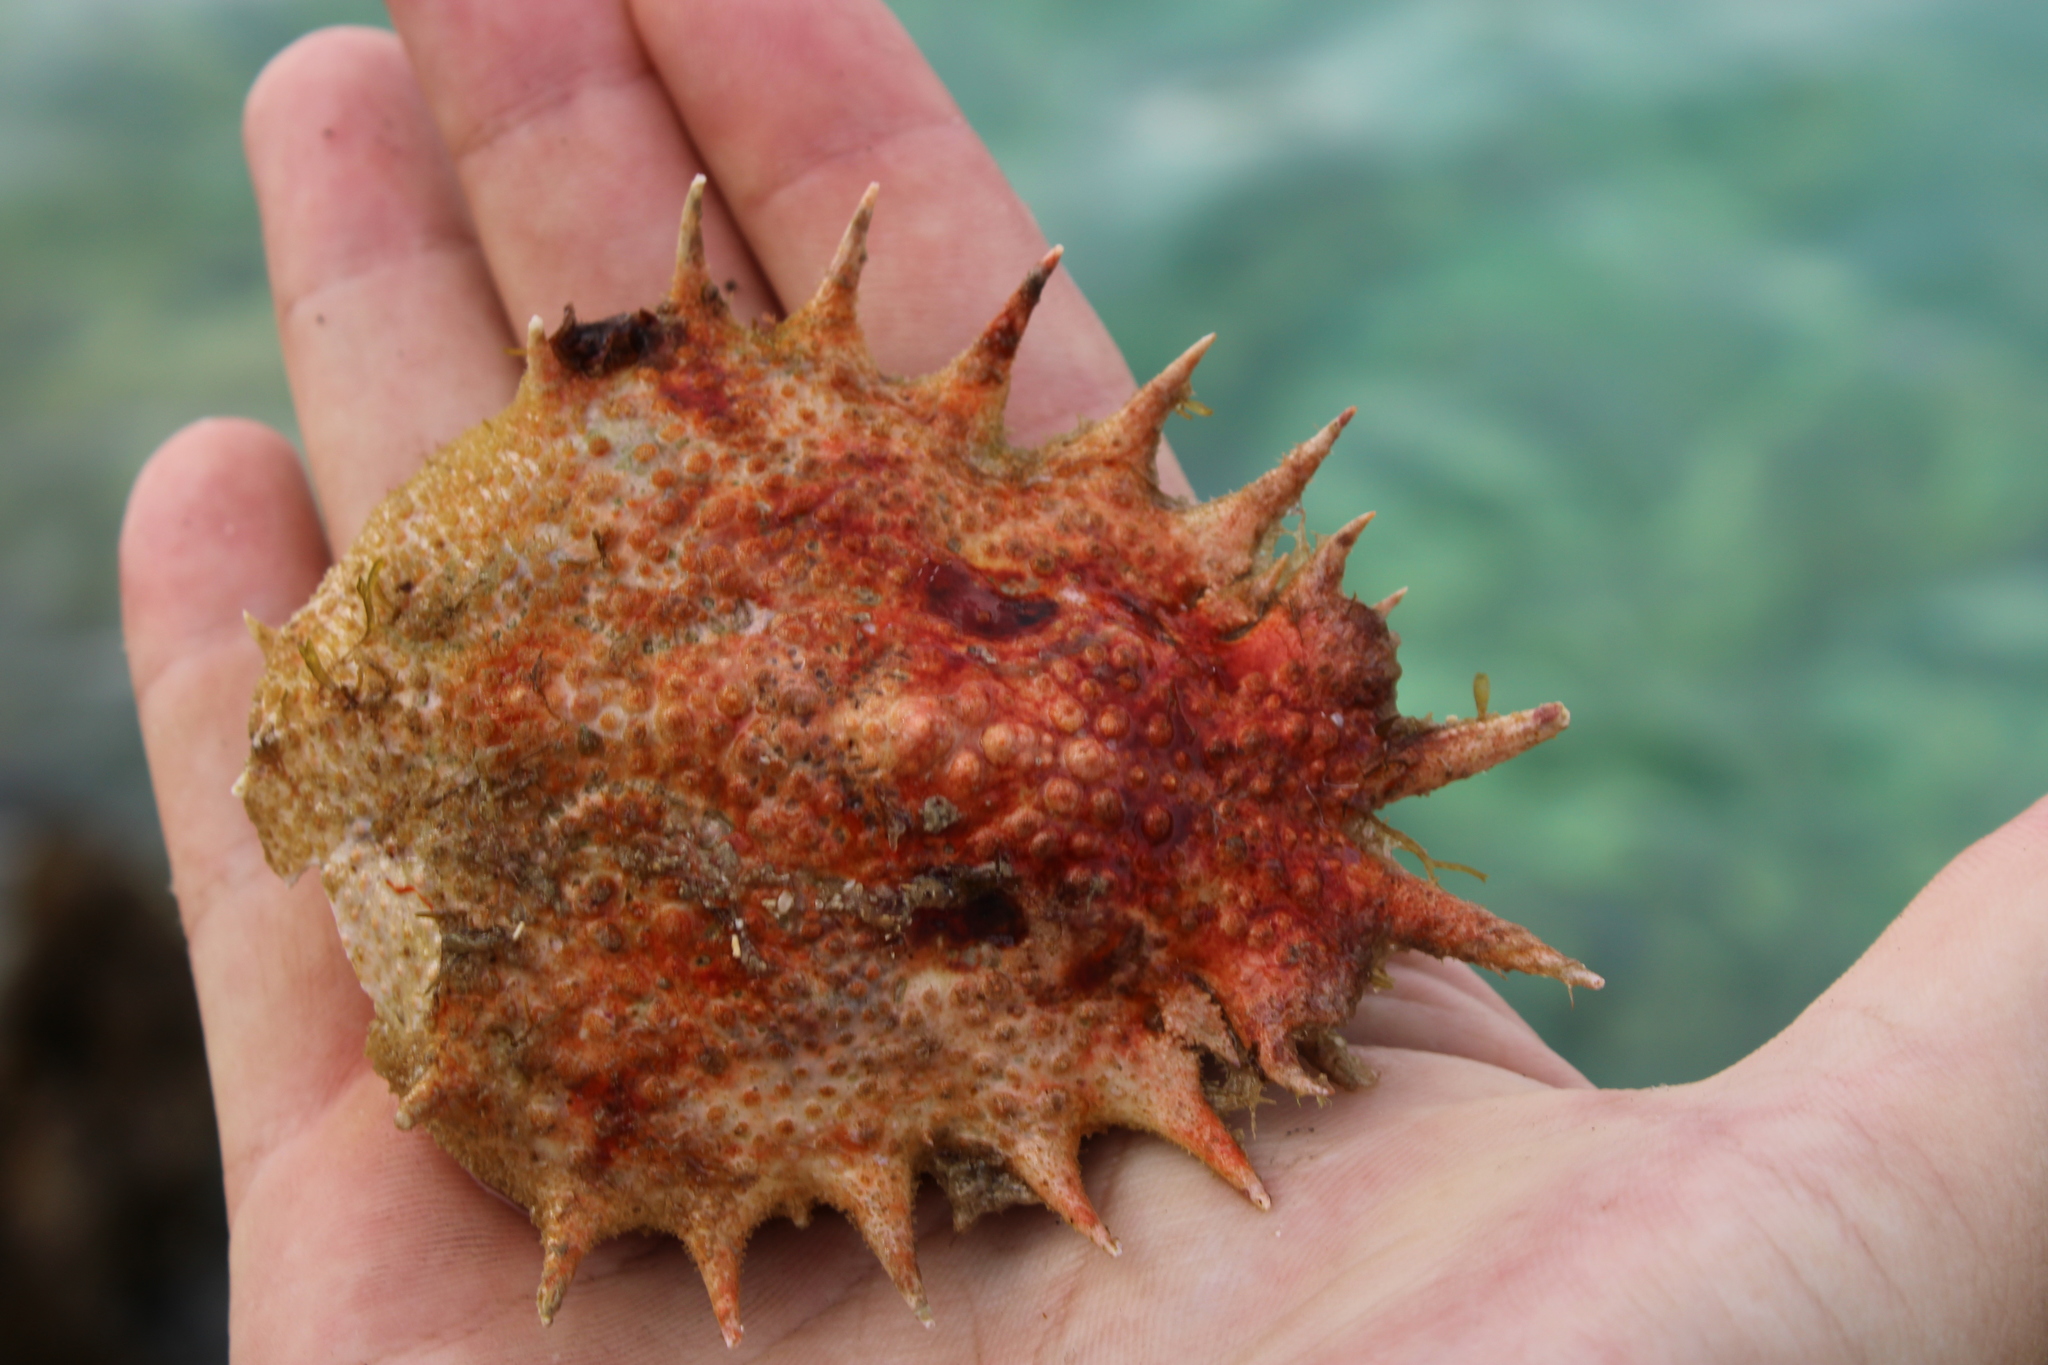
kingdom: Animalia
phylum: Arthropoda
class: Malacostraca
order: Decapoda
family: Majidae
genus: Maja
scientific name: Maja crispata
